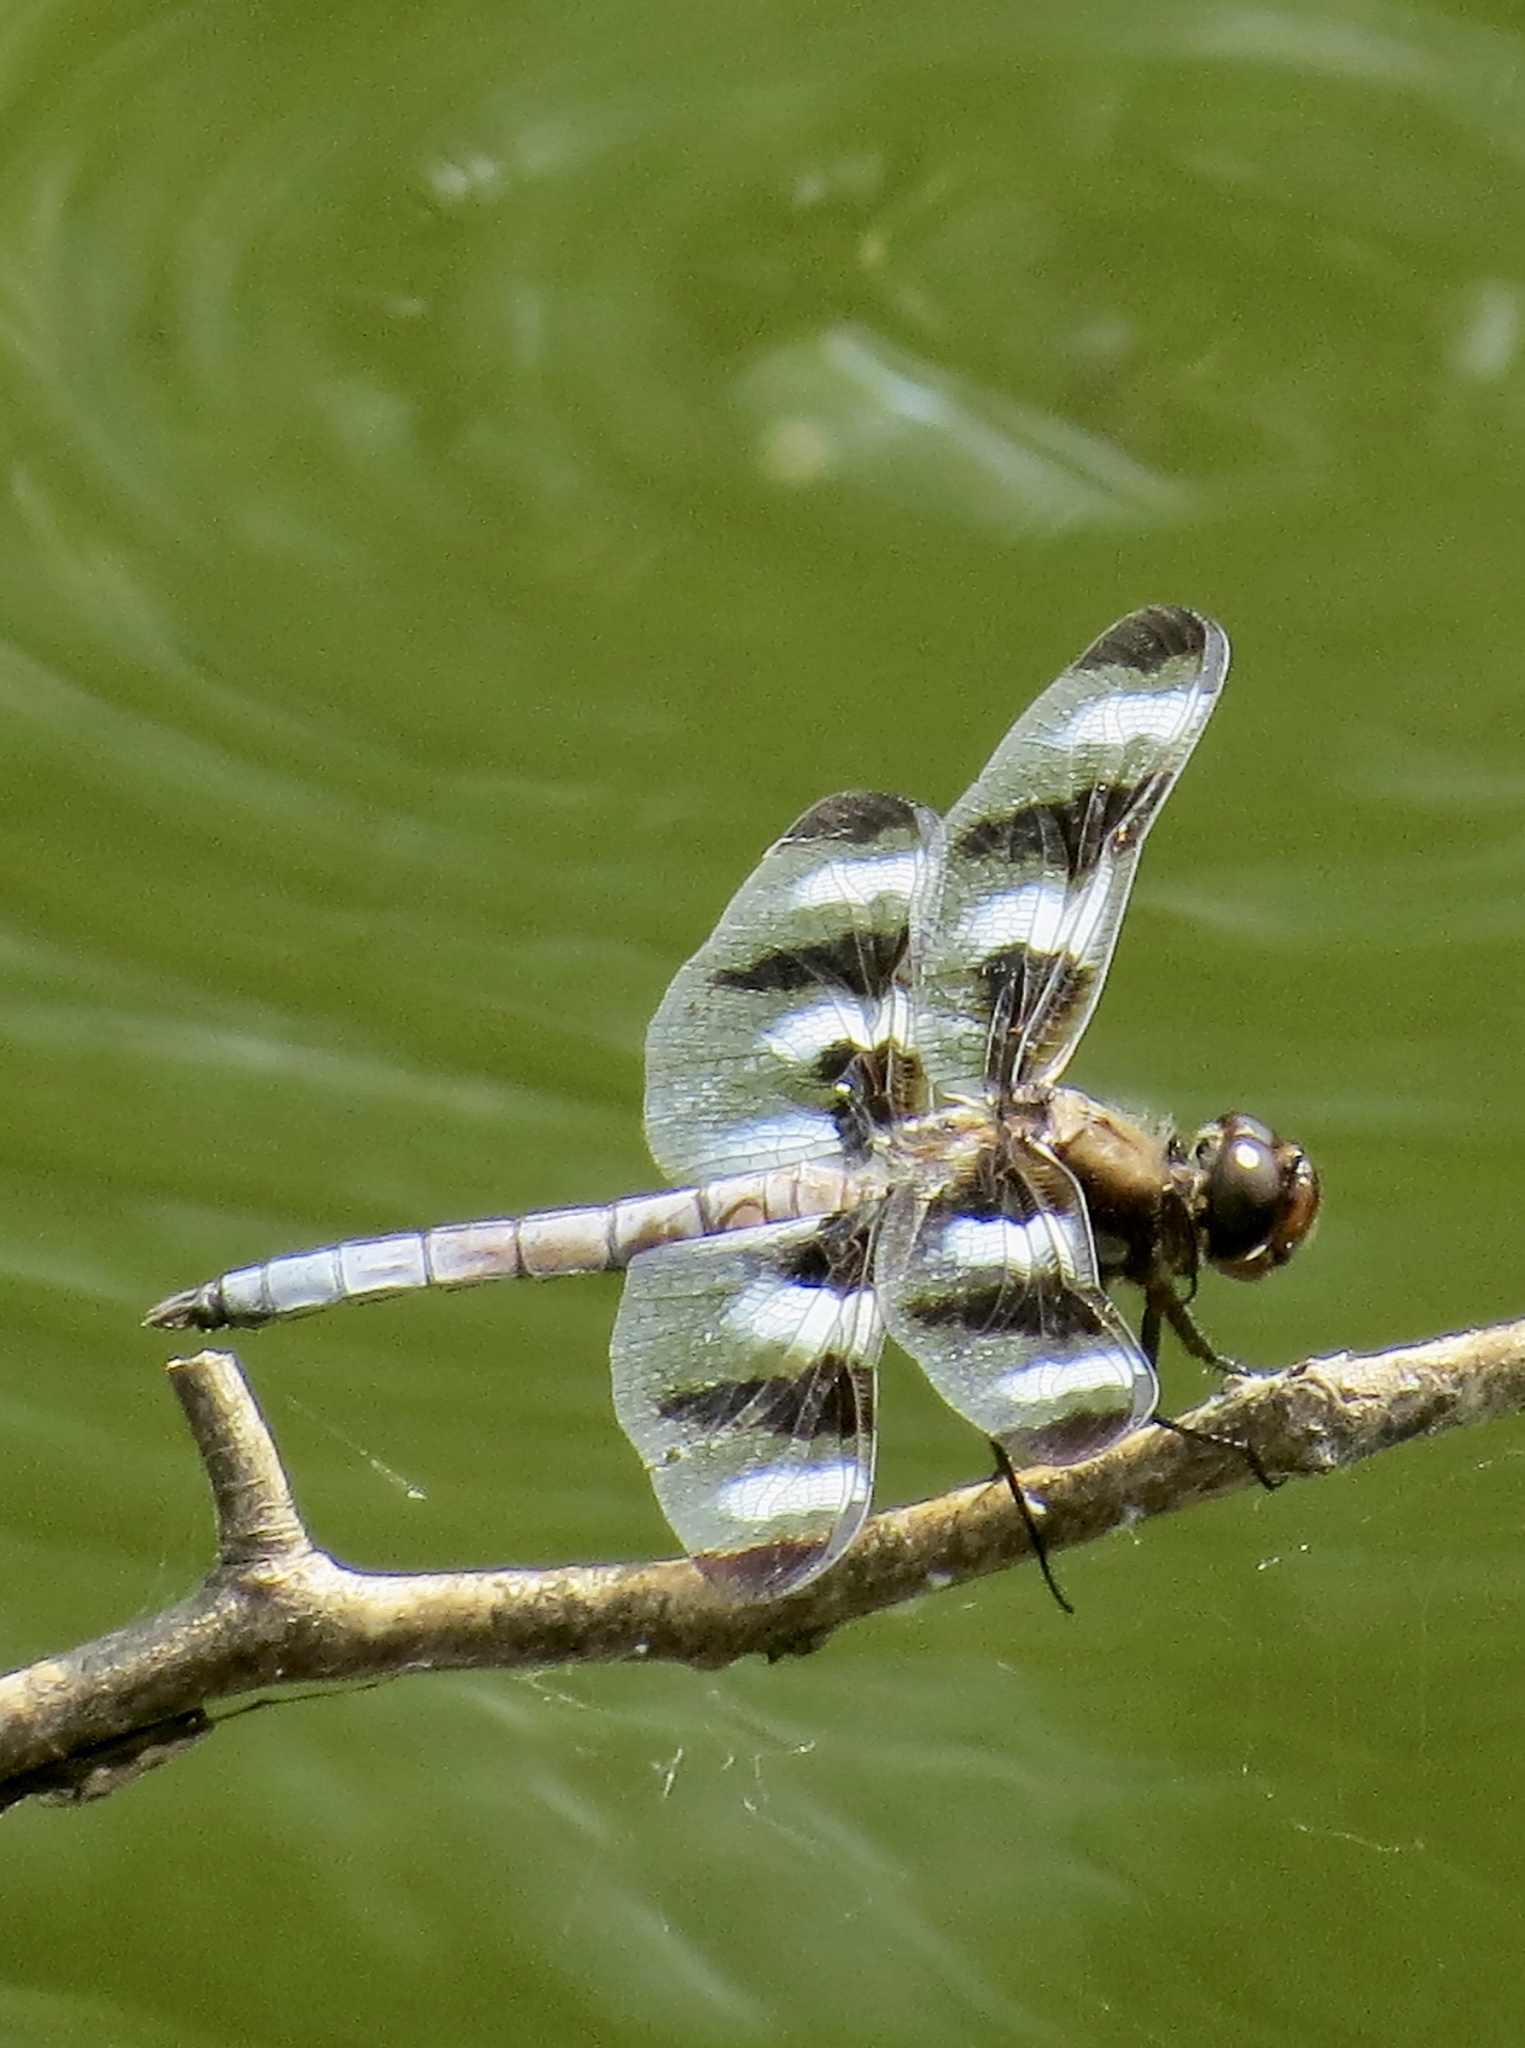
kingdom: Animalia
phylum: Arthropoda
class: Insecta
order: Odonata
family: Libellulidae
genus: Libellula
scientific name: Libellula pulchella
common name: Twelve-spotted skimmer
